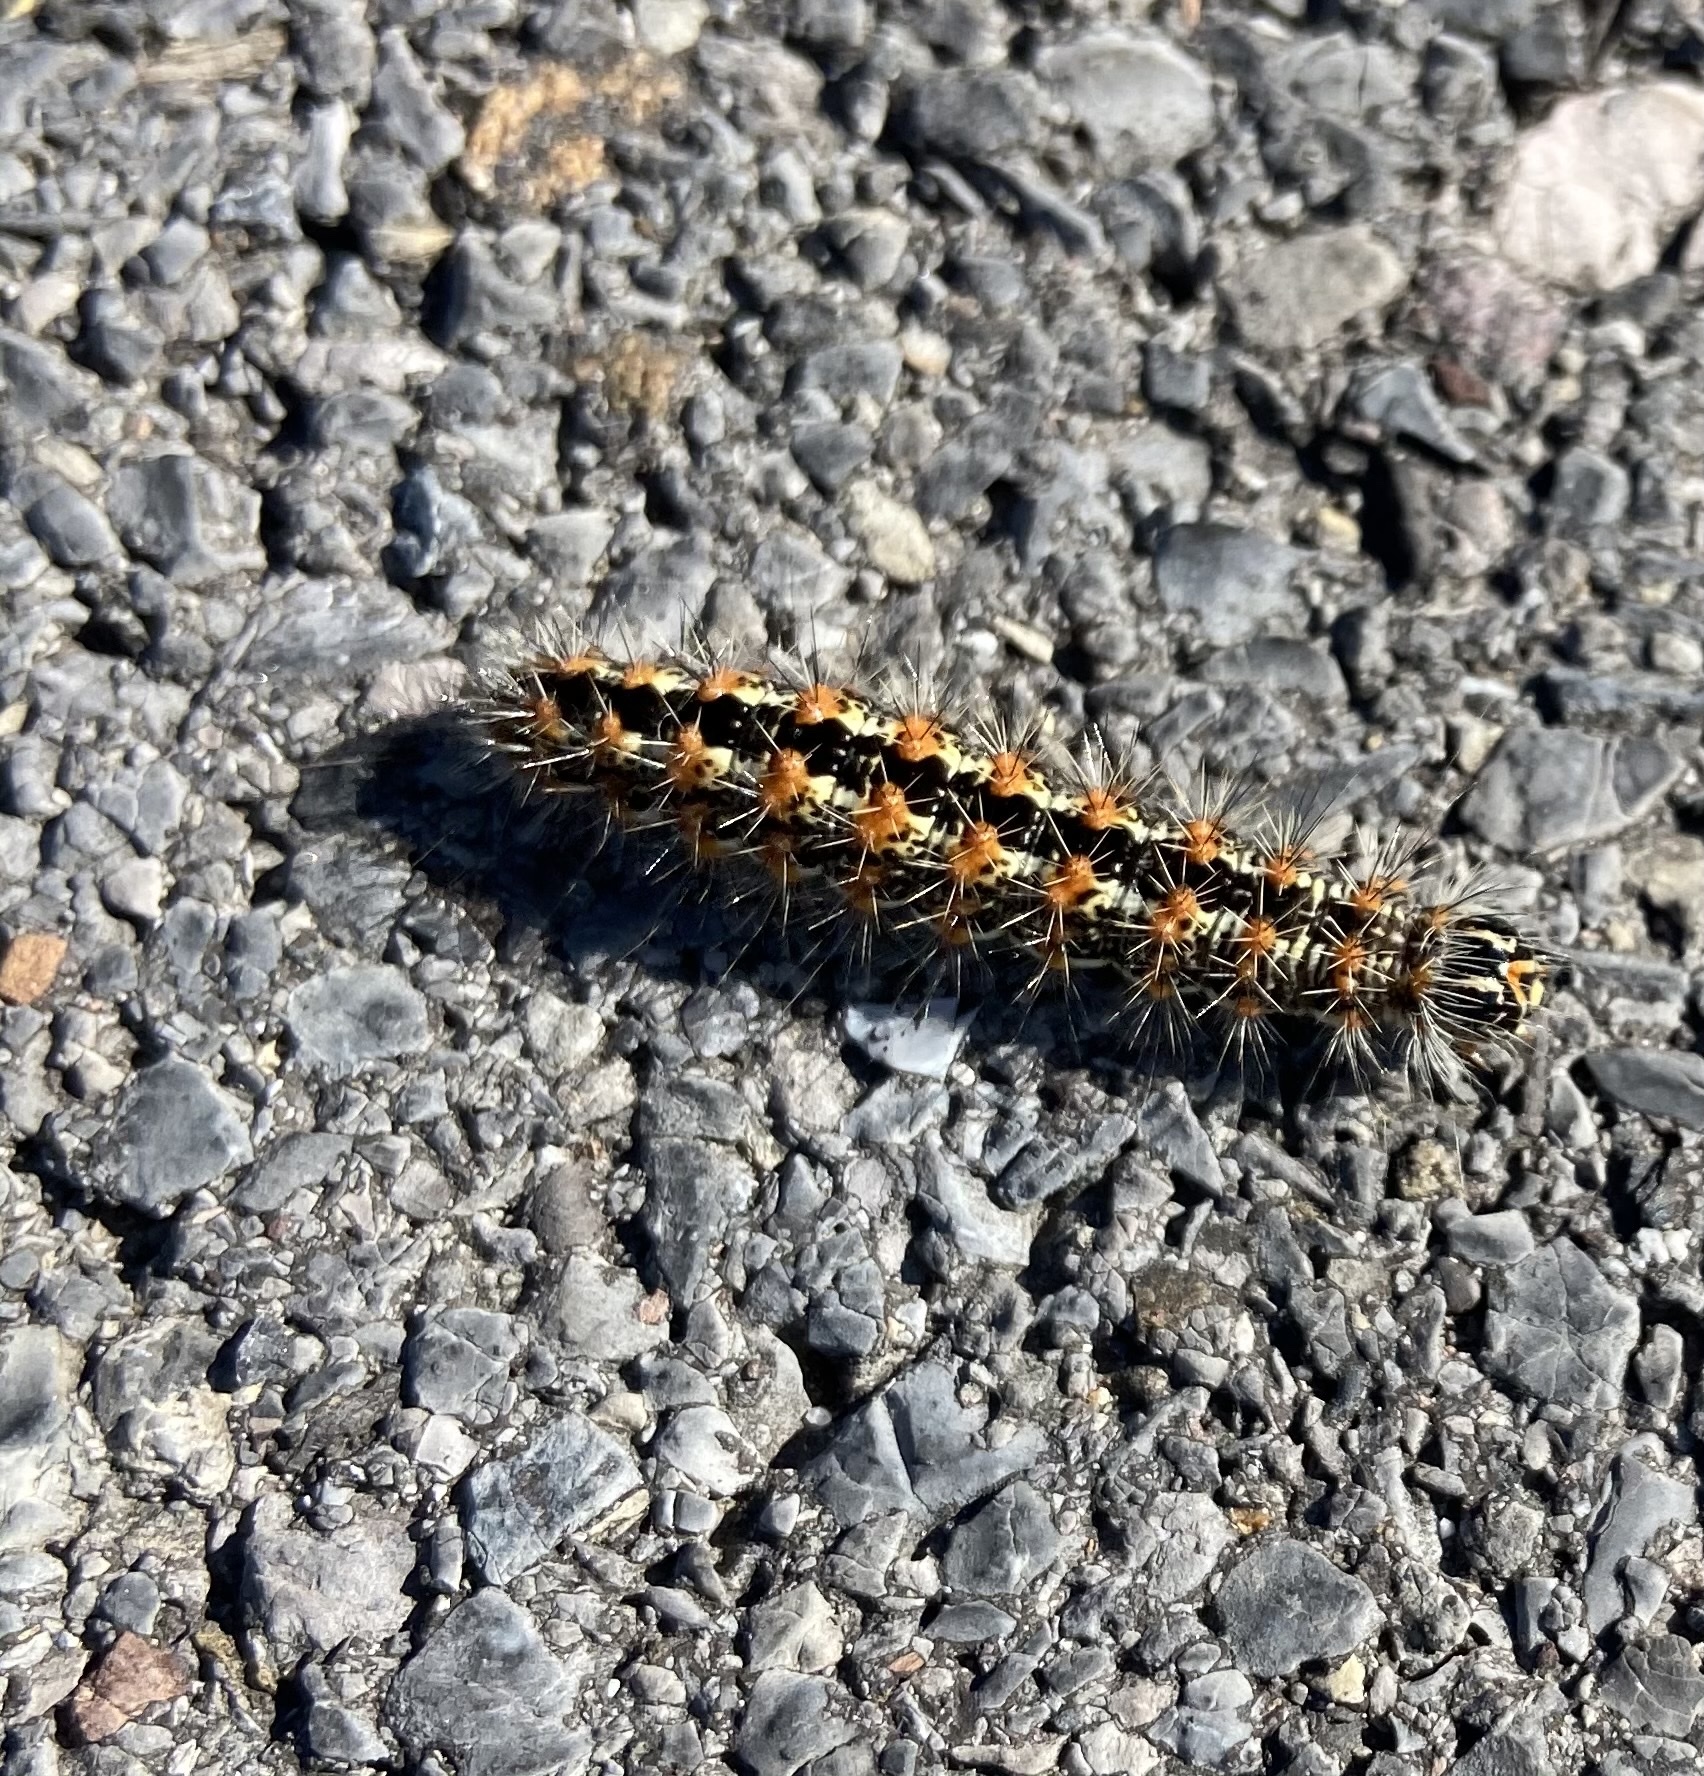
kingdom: Animalia
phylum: Arthropoda
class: Insecta
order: Lepidoptera
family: Noctuidae
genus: Acronicta
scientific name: Acronicta insularis
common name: Henry's marsh moth
